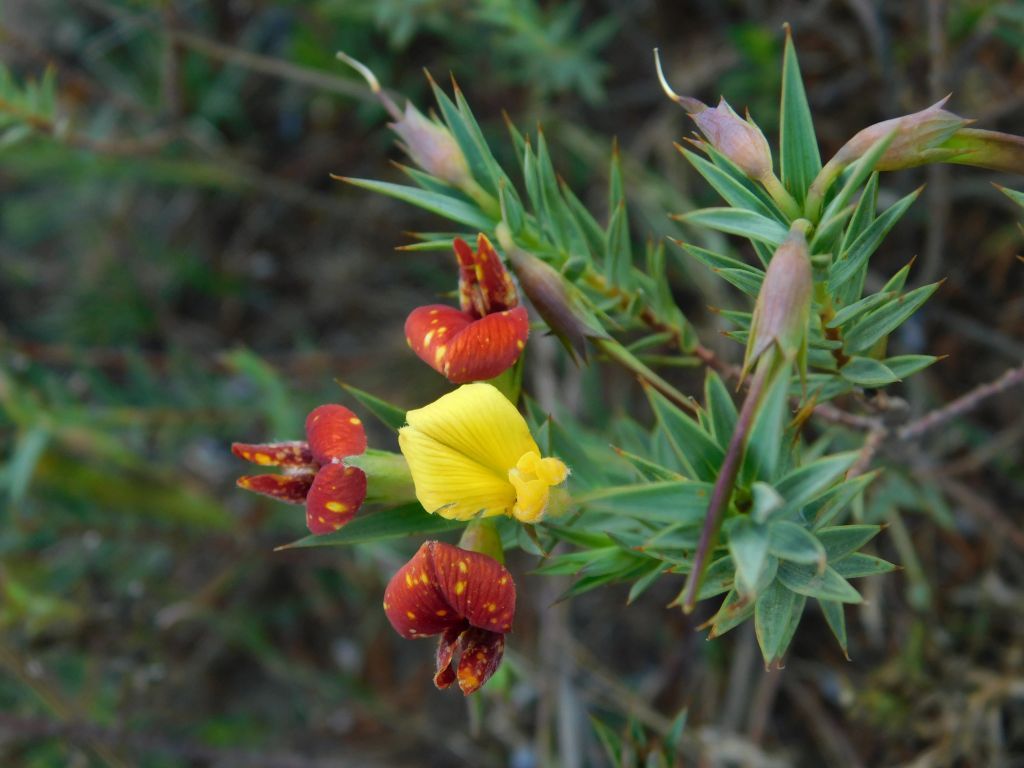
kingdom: Plantae
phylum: Tracheophyta
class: Magnoliopsida
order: Fabales
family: Fabaceae
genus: Aspalathus
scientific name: Aspalathus angustifolia
